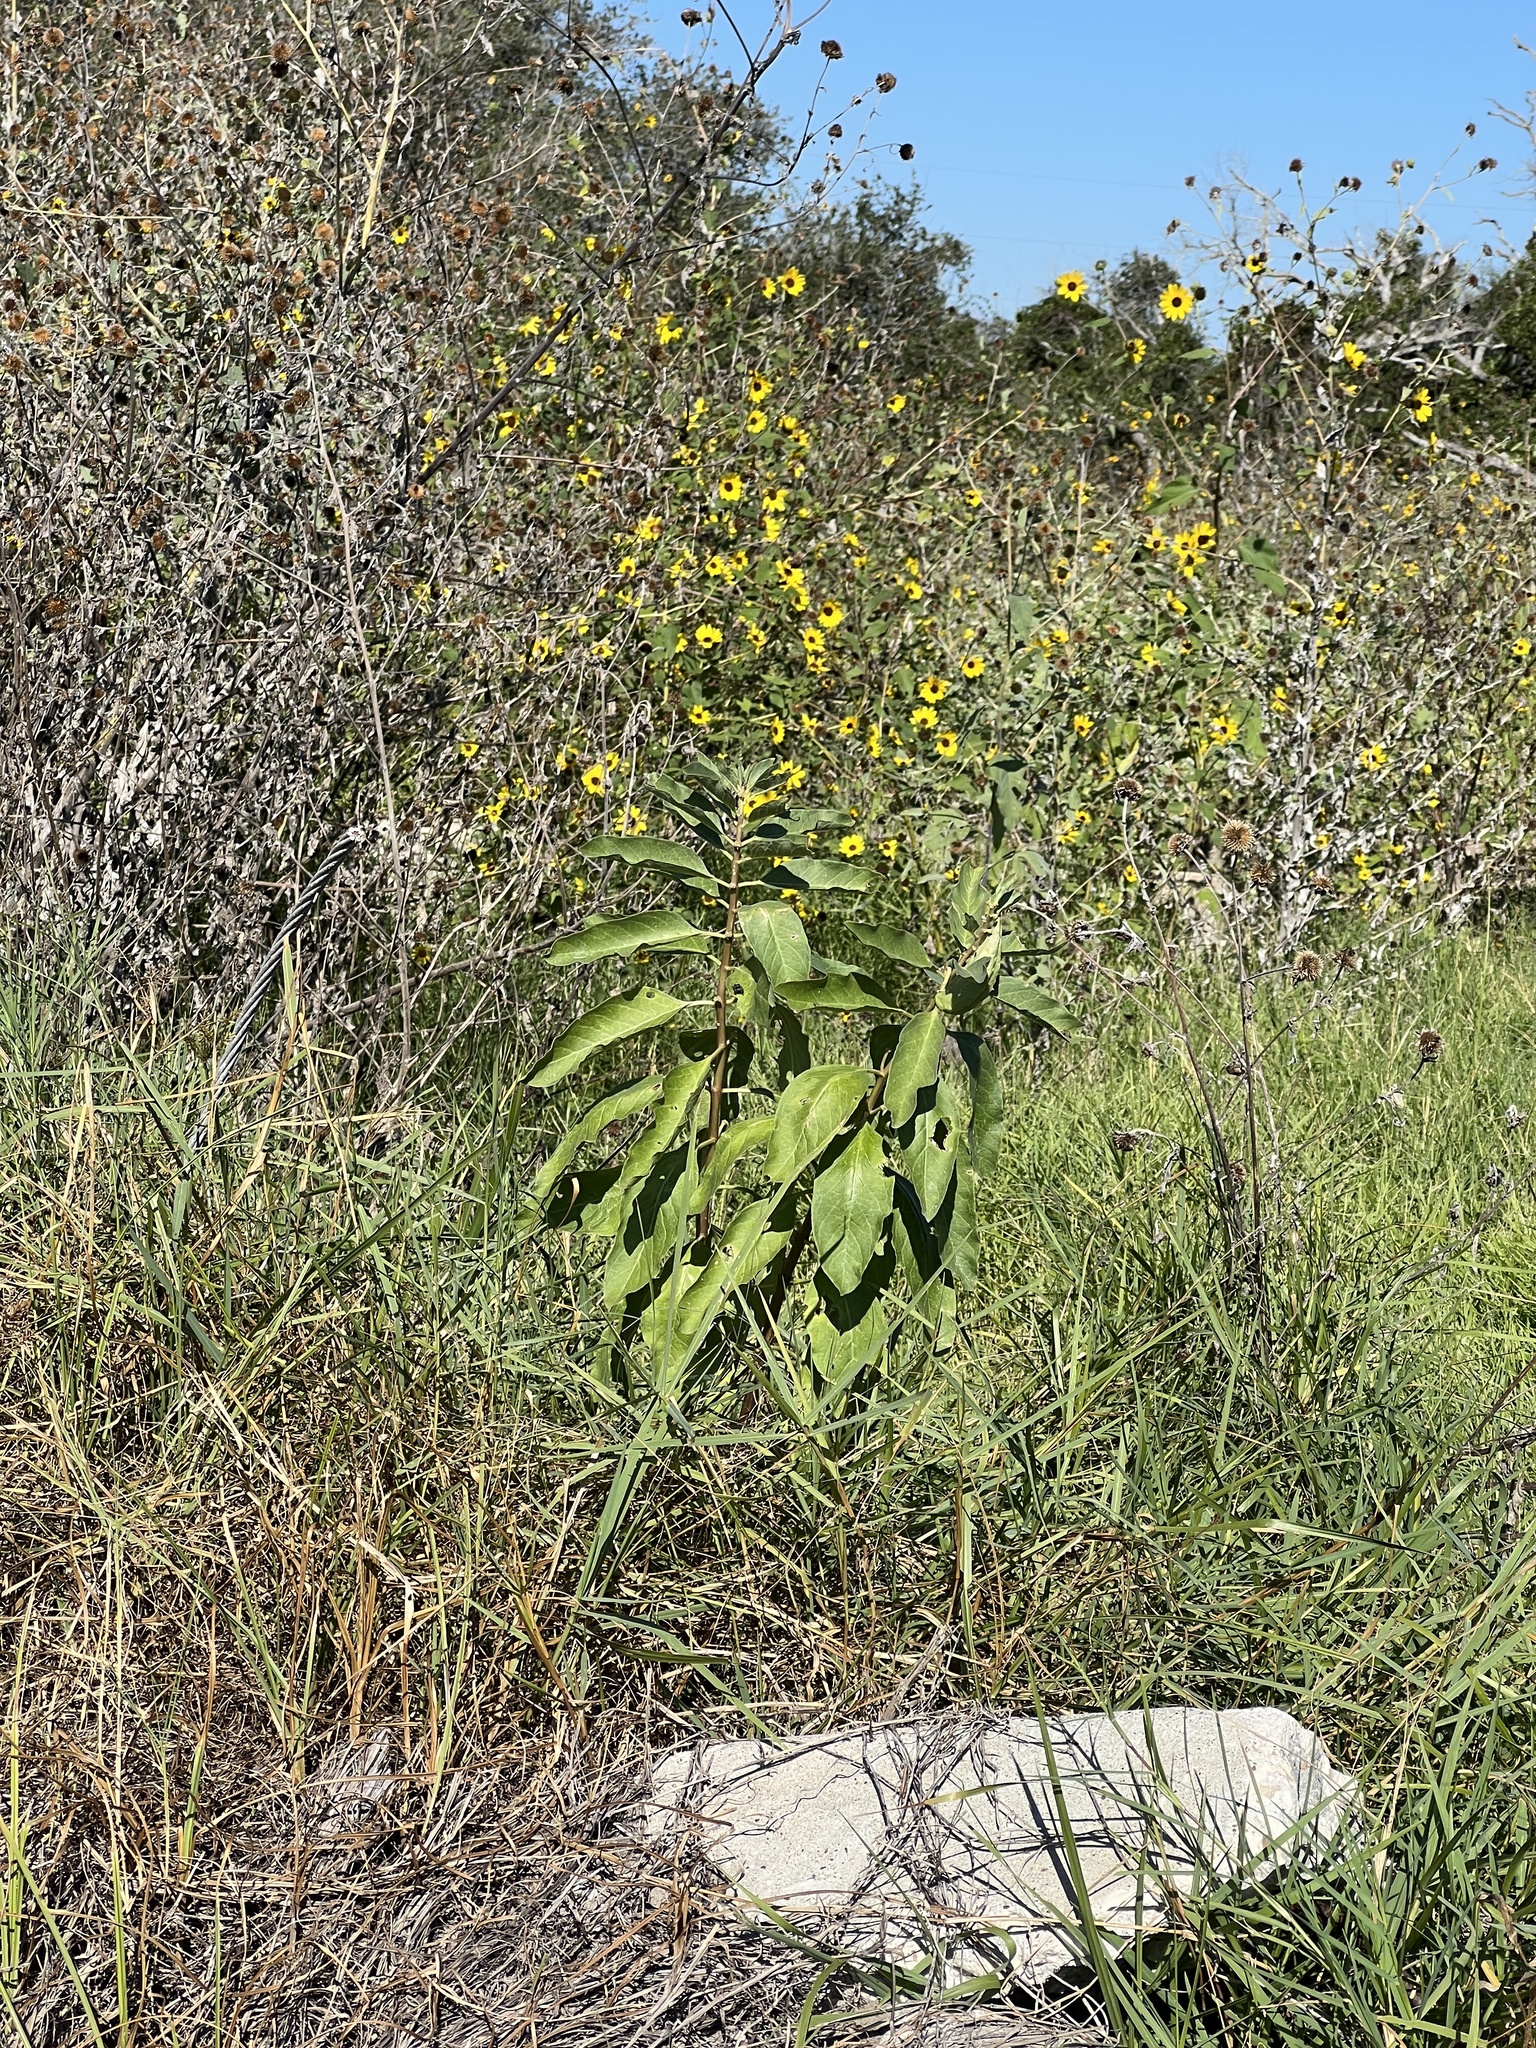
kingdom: Plantae
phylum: Tracheophyta
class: Magnoliopsida
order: Gentianales
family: Apocynaceae
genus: Asclepias
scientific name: Asclepias oenotheroides
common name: Zizotes milkweed
